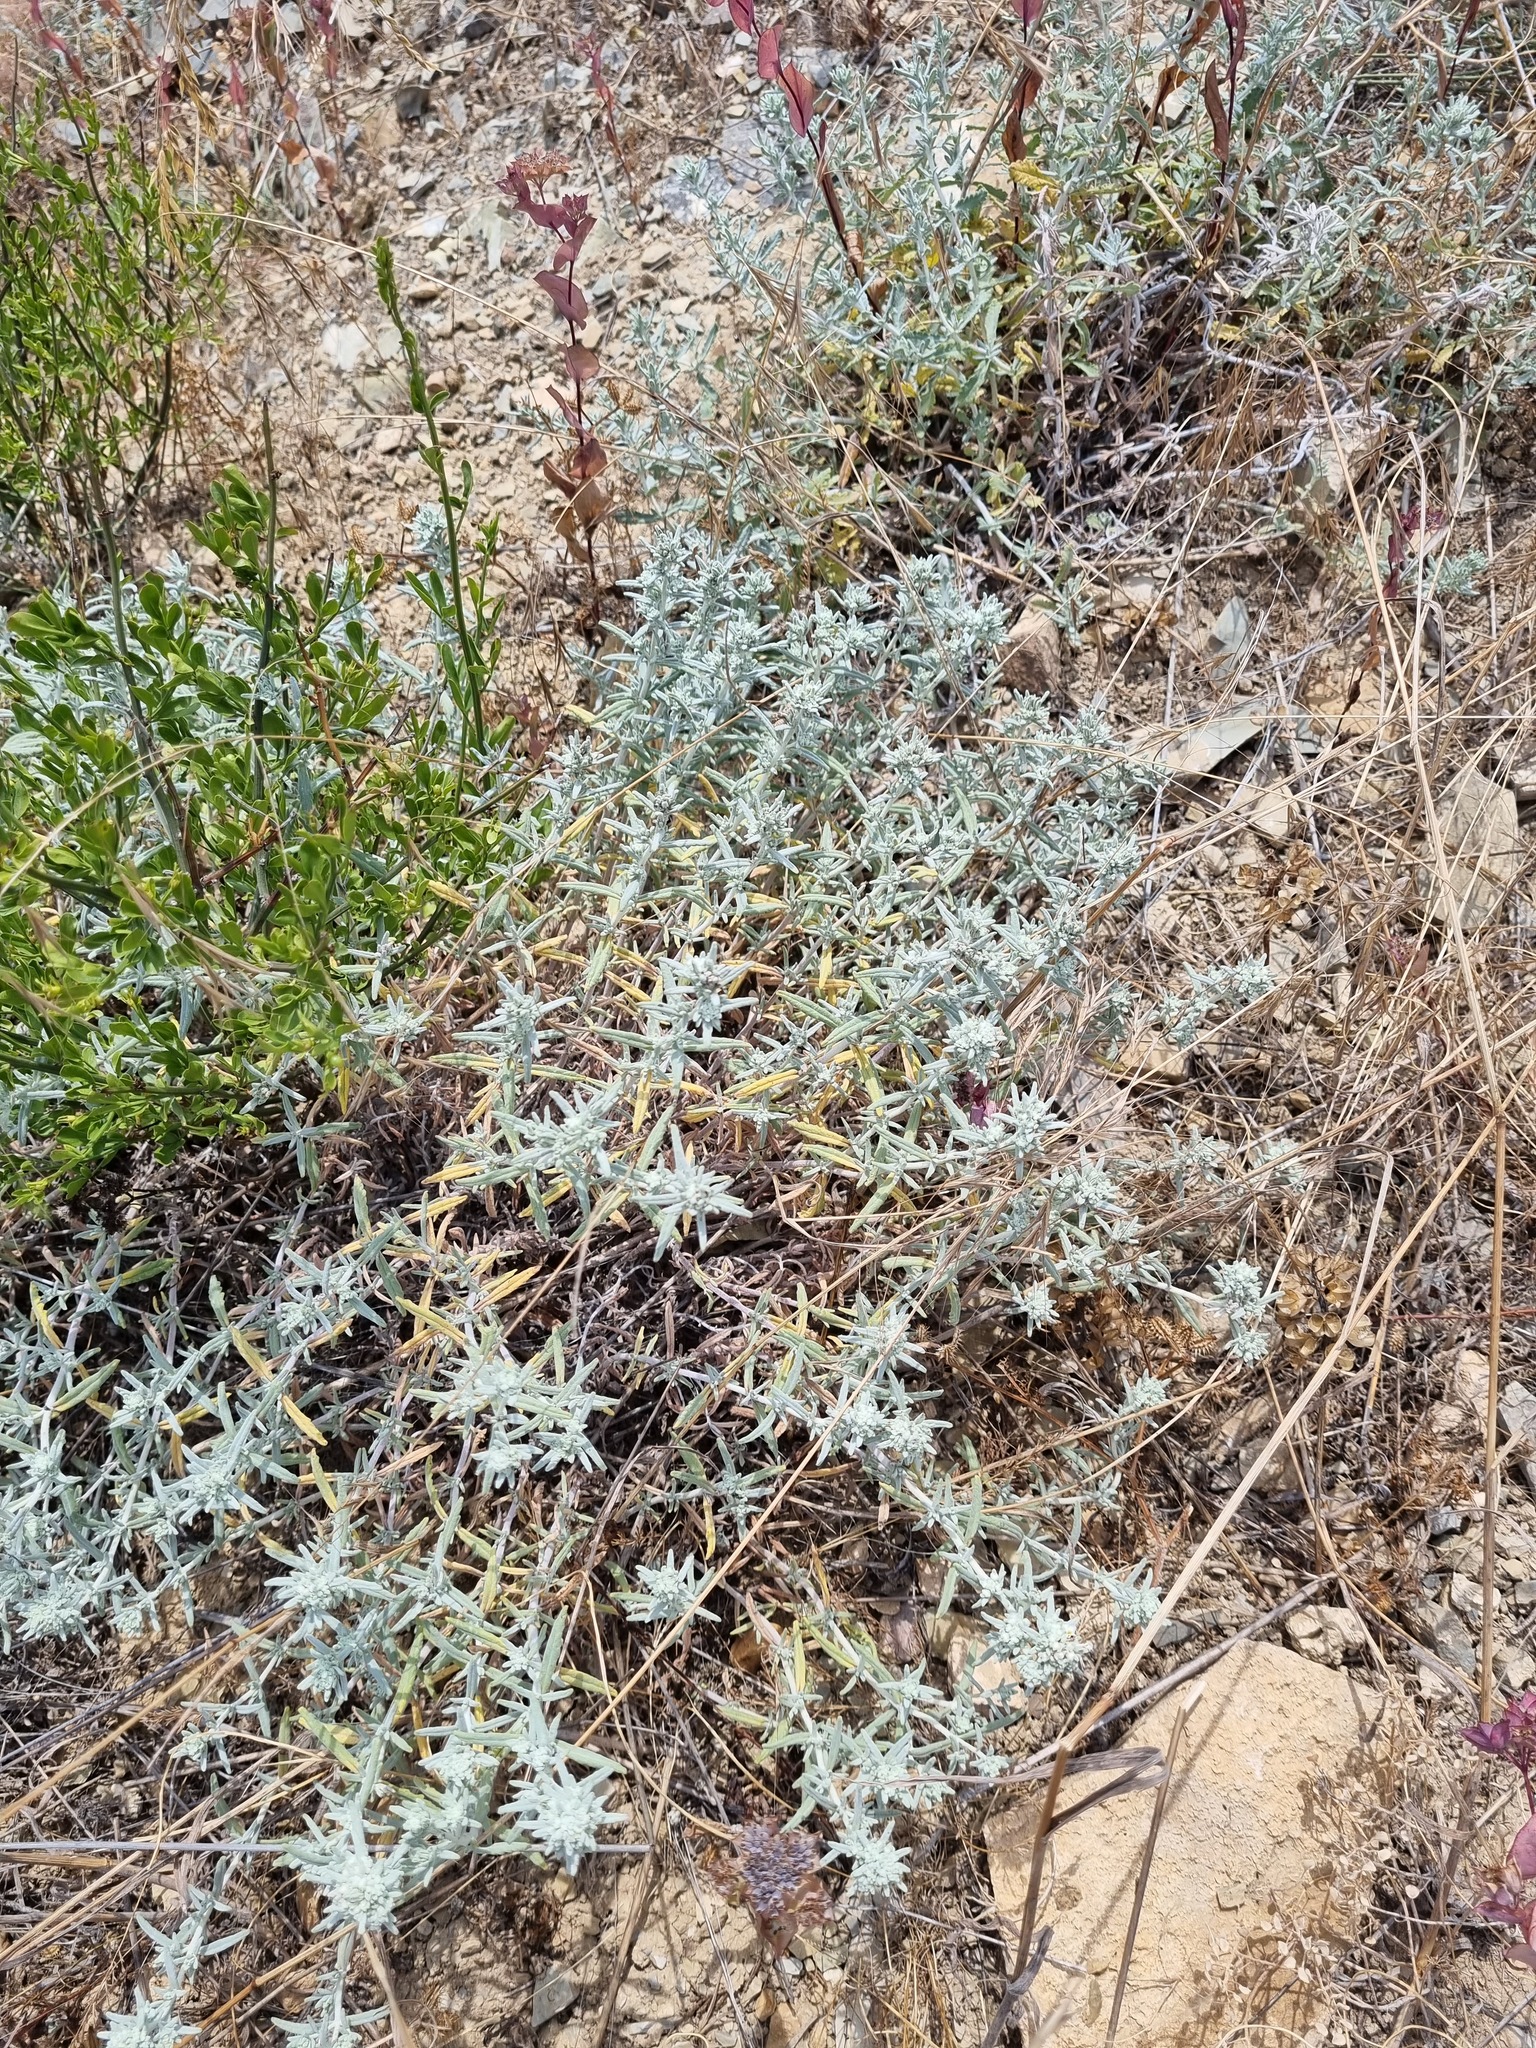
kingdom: Plantae
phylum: Tracheophyta
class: Magnoliopsida
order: Lamiales
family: Lamiaceae
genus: Teucrium
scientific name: Teucrium polium
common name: Poley
